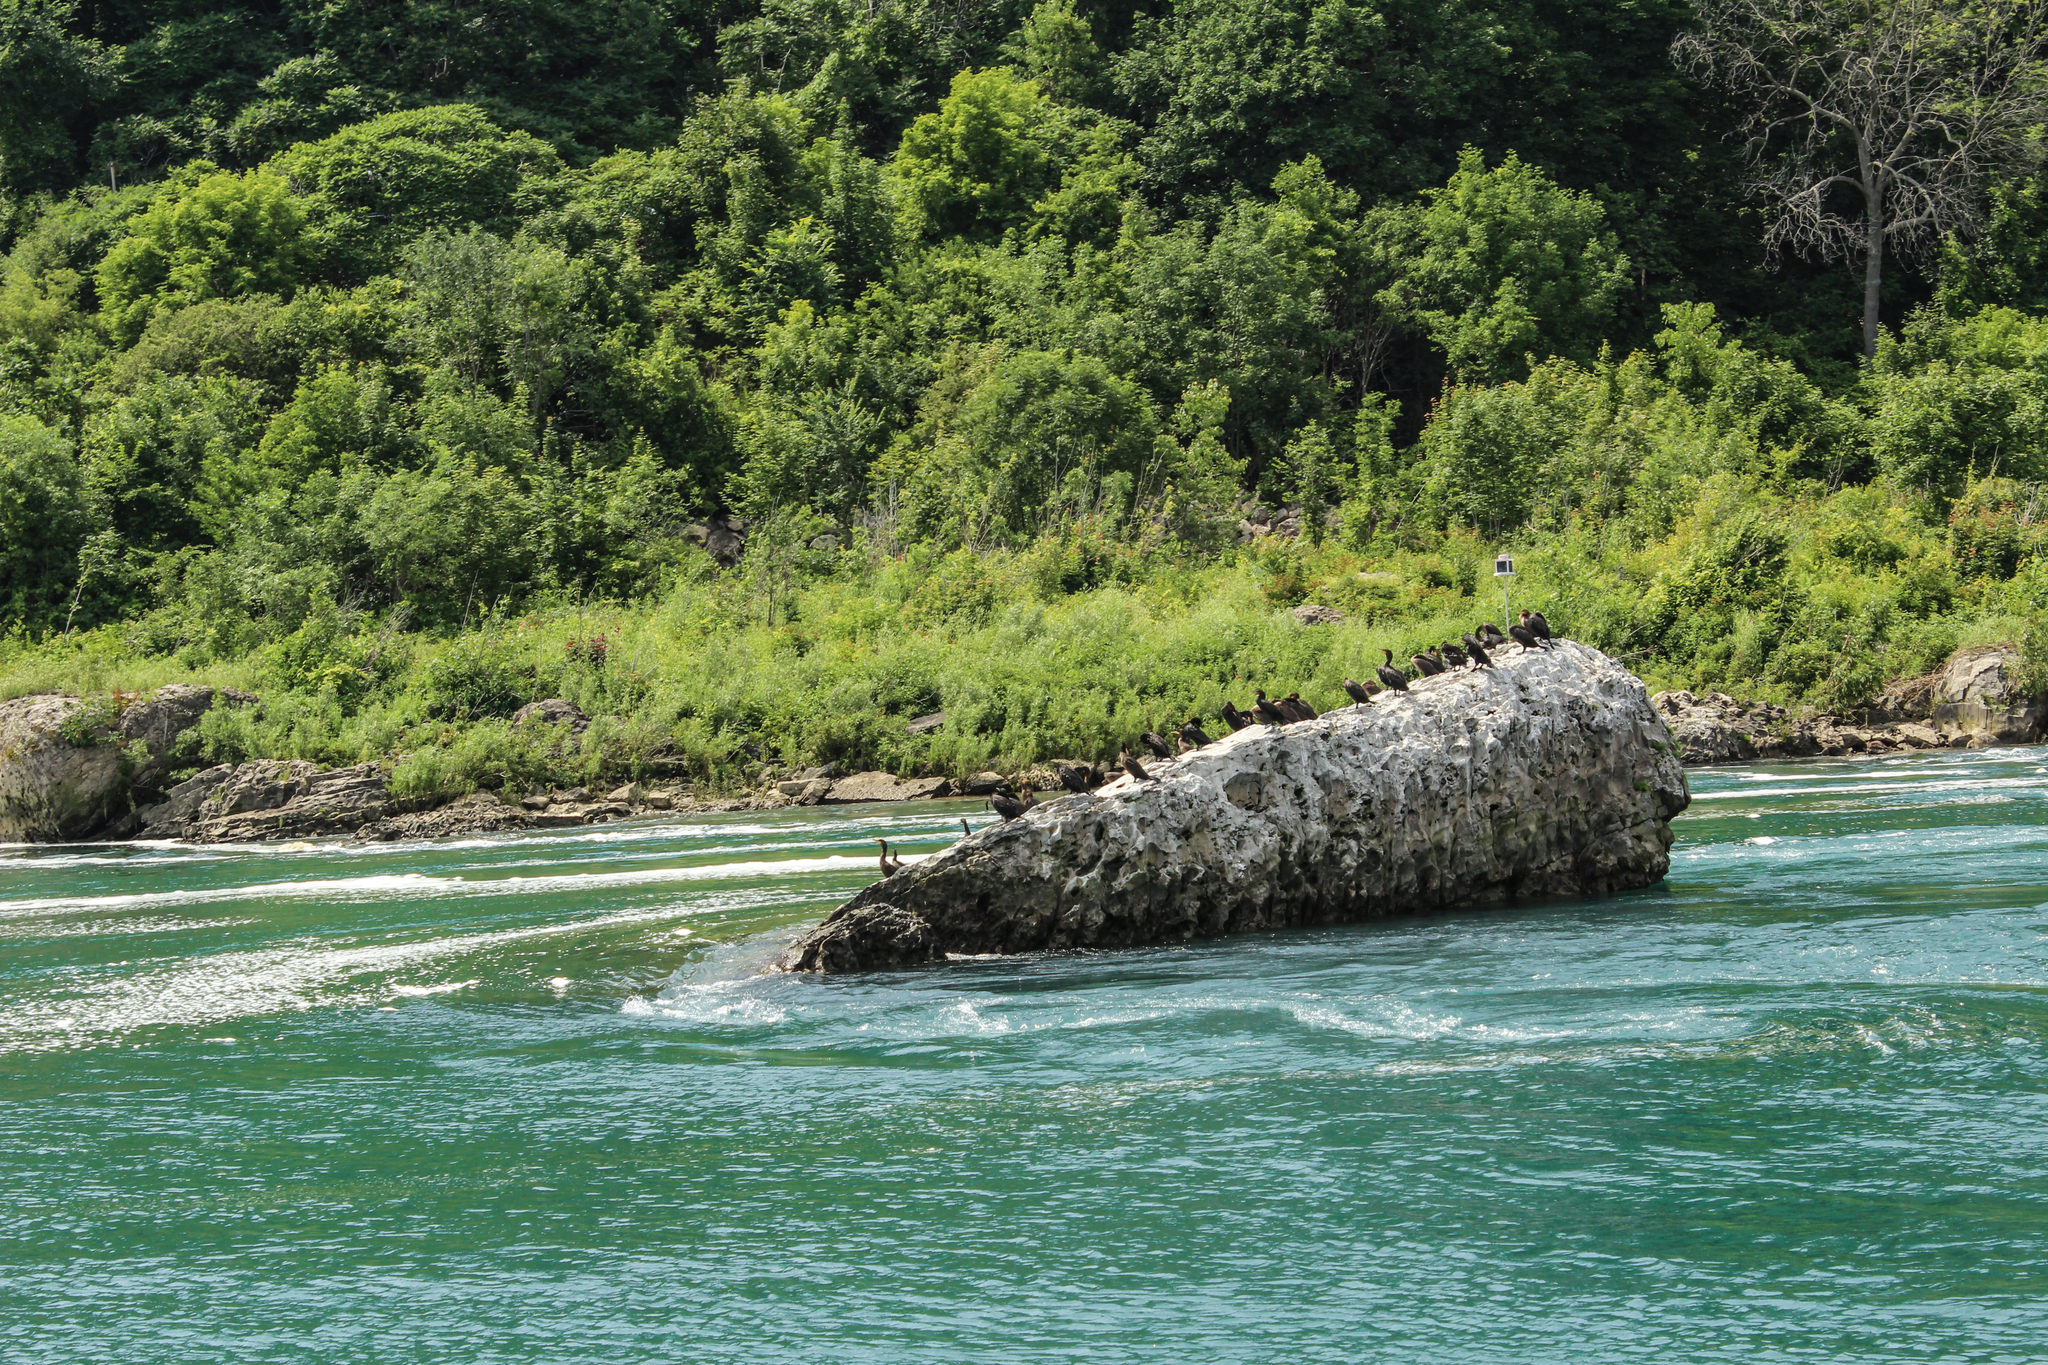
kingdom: Animalia
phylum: Chordata
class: Aves
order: Suliformes
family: Phalacrocoracidae
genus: Phalacrocorax
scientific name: Phalacrocorax auritus
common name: Double-crested cormorant
